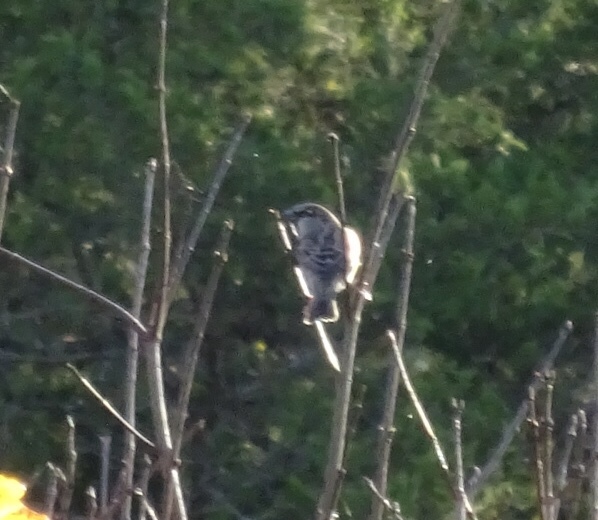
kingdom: Animalia
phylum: Chordata
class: Aves
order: Passeriformes
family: Passeridae
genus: Passer
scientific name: Passer domesticus
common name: House sparrow
